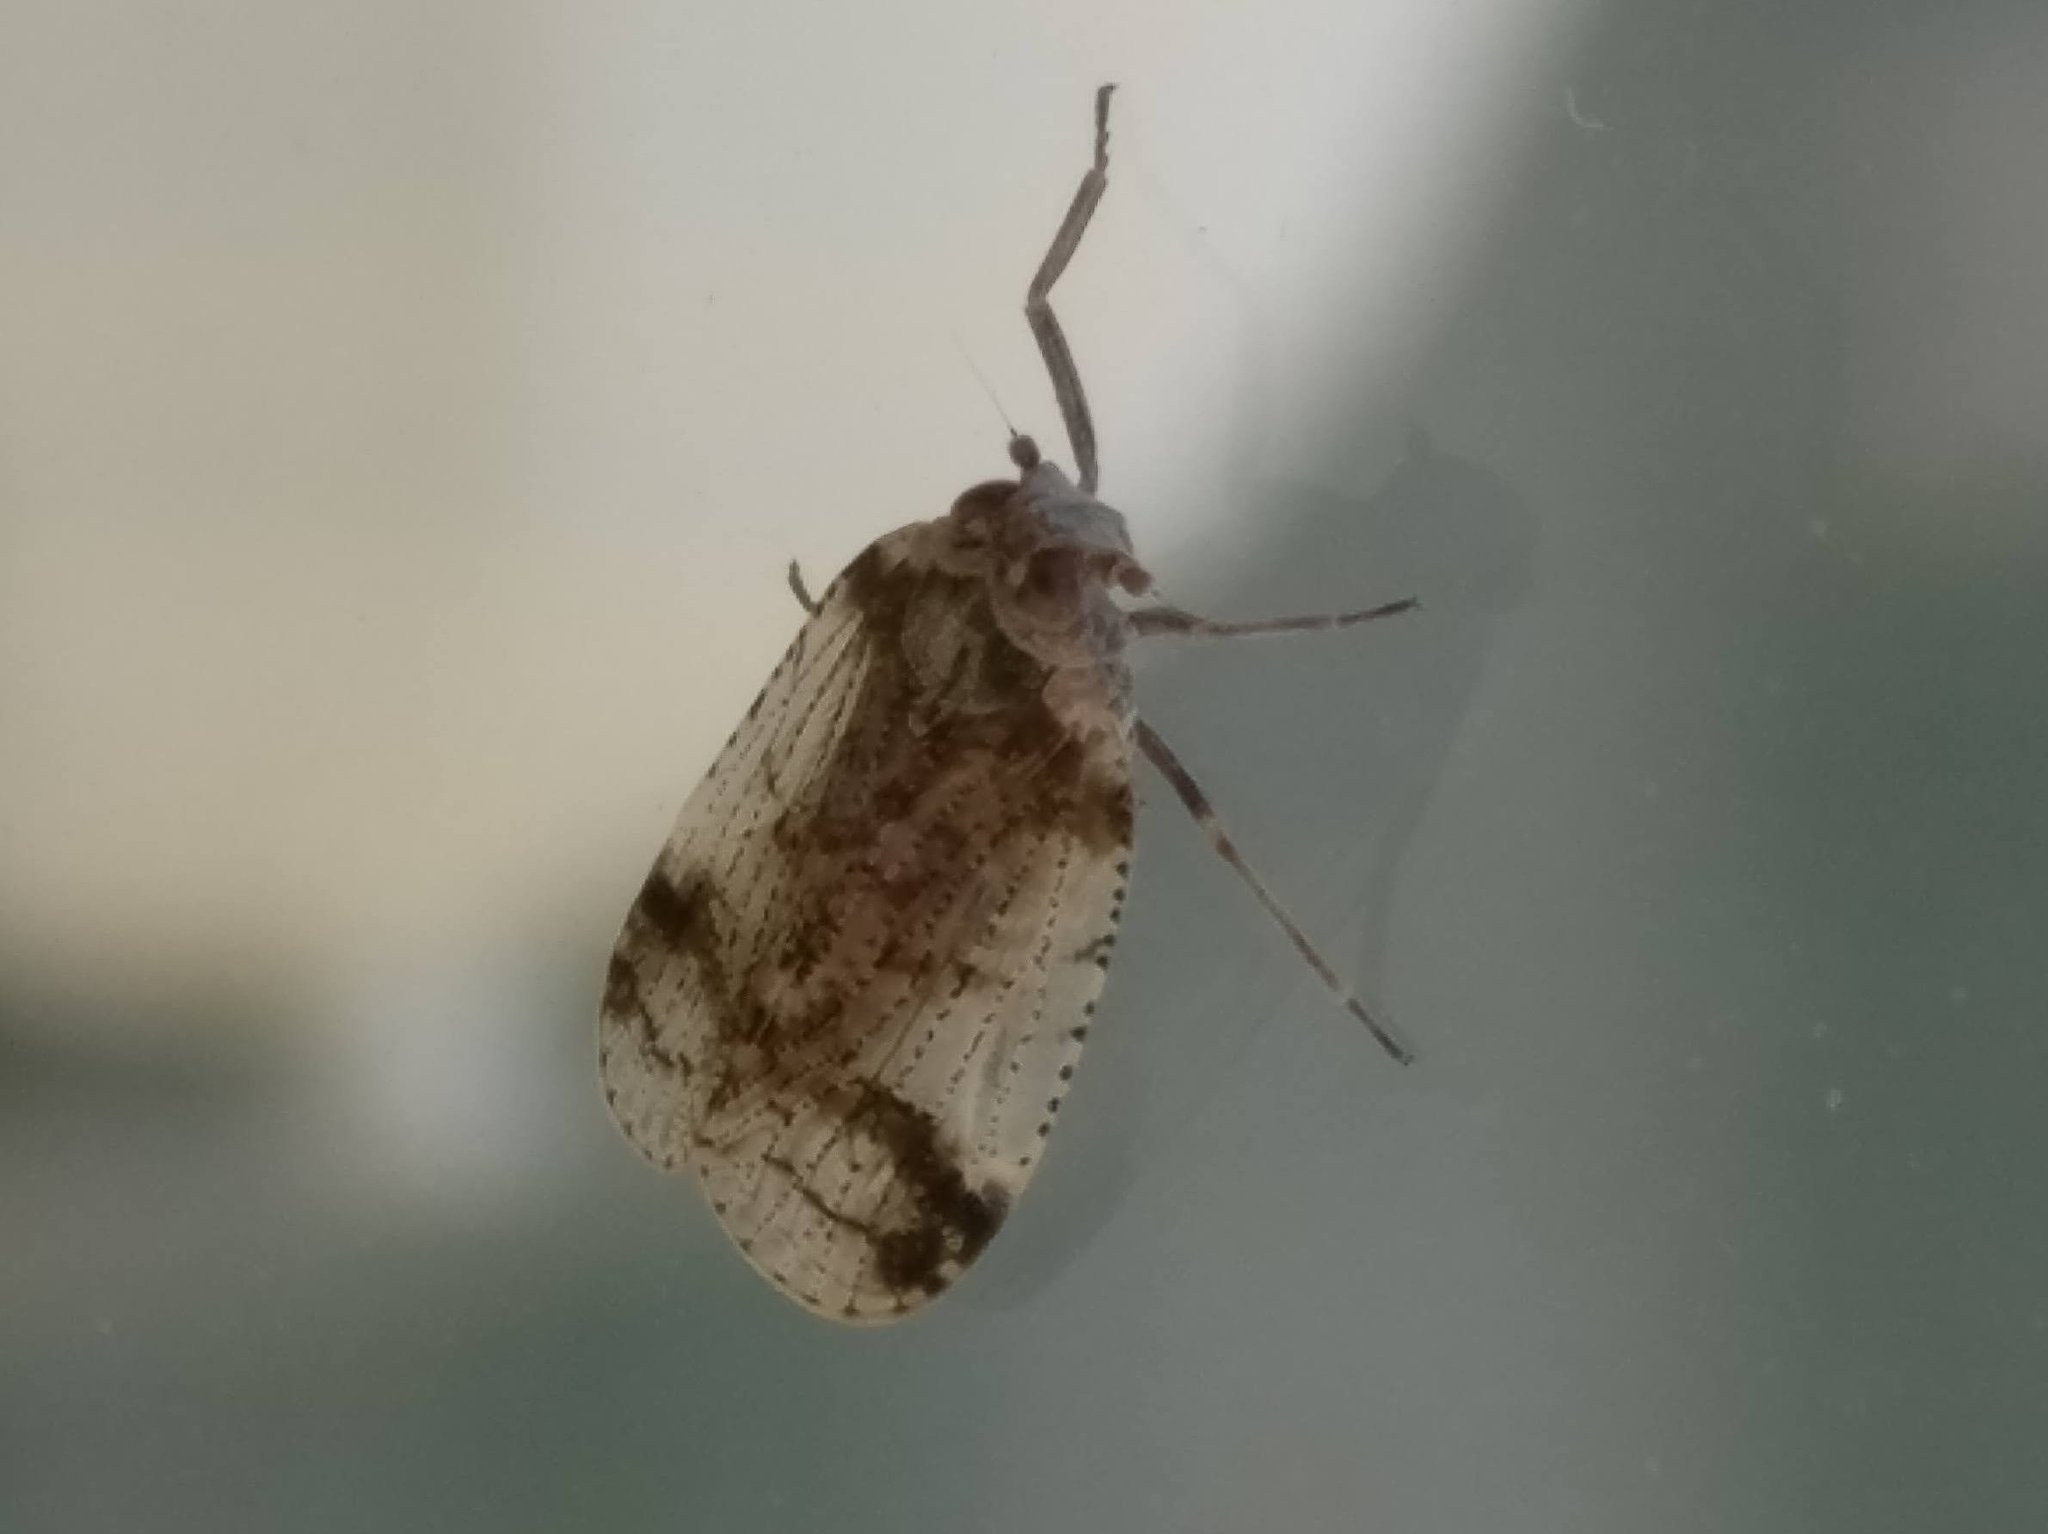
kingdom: Animalia
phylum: Arthropoda
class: Insecta
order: Hemiptera
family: Cixiidae
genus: Cixius
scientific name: Cixius cunicularius
